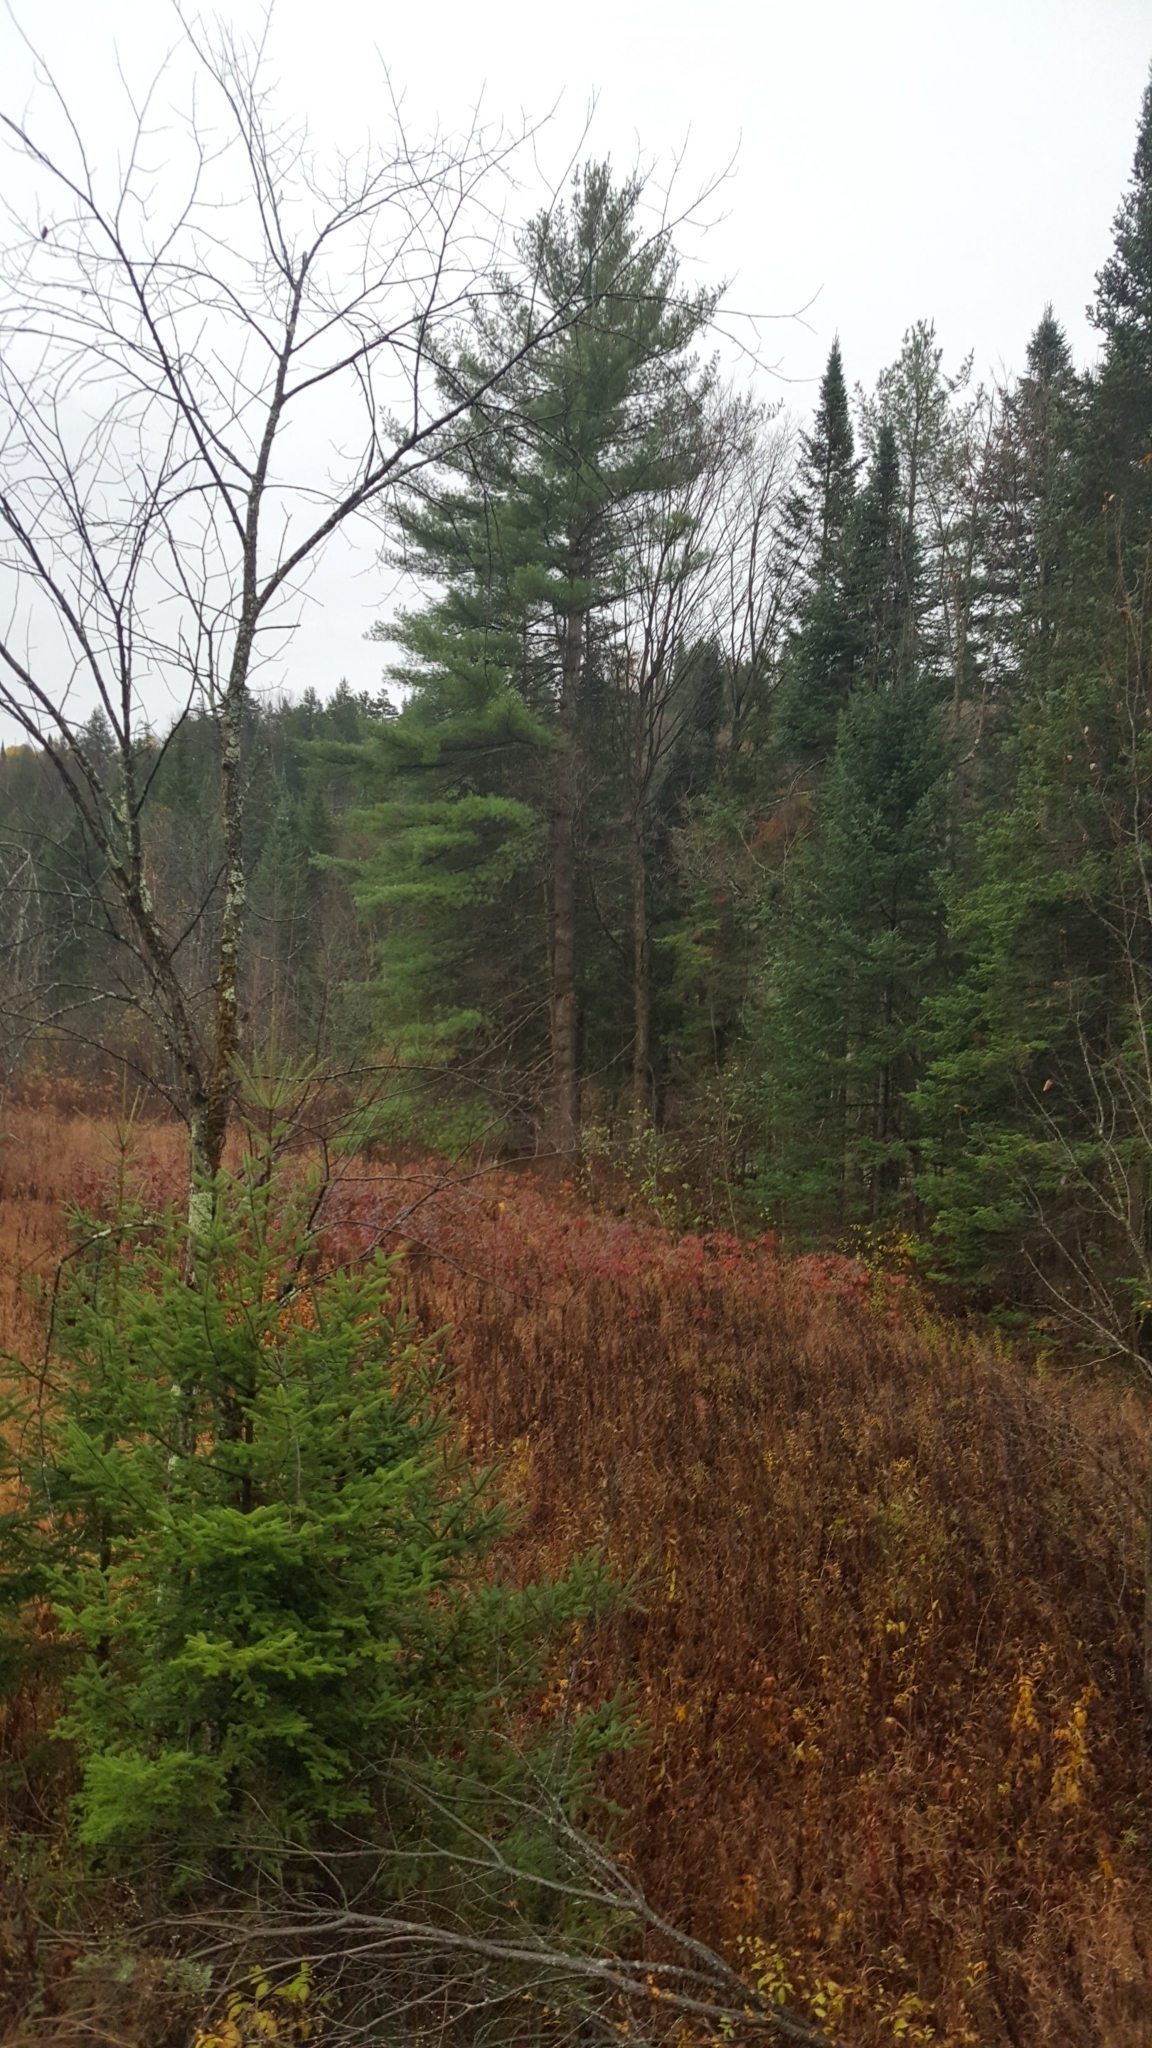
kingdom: Plantae
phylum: Tracheophyta
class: Pinopsida
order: Pinales
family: Pinaceae
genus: Pinus
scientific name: Pinus strobus
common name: Weymouth pine
